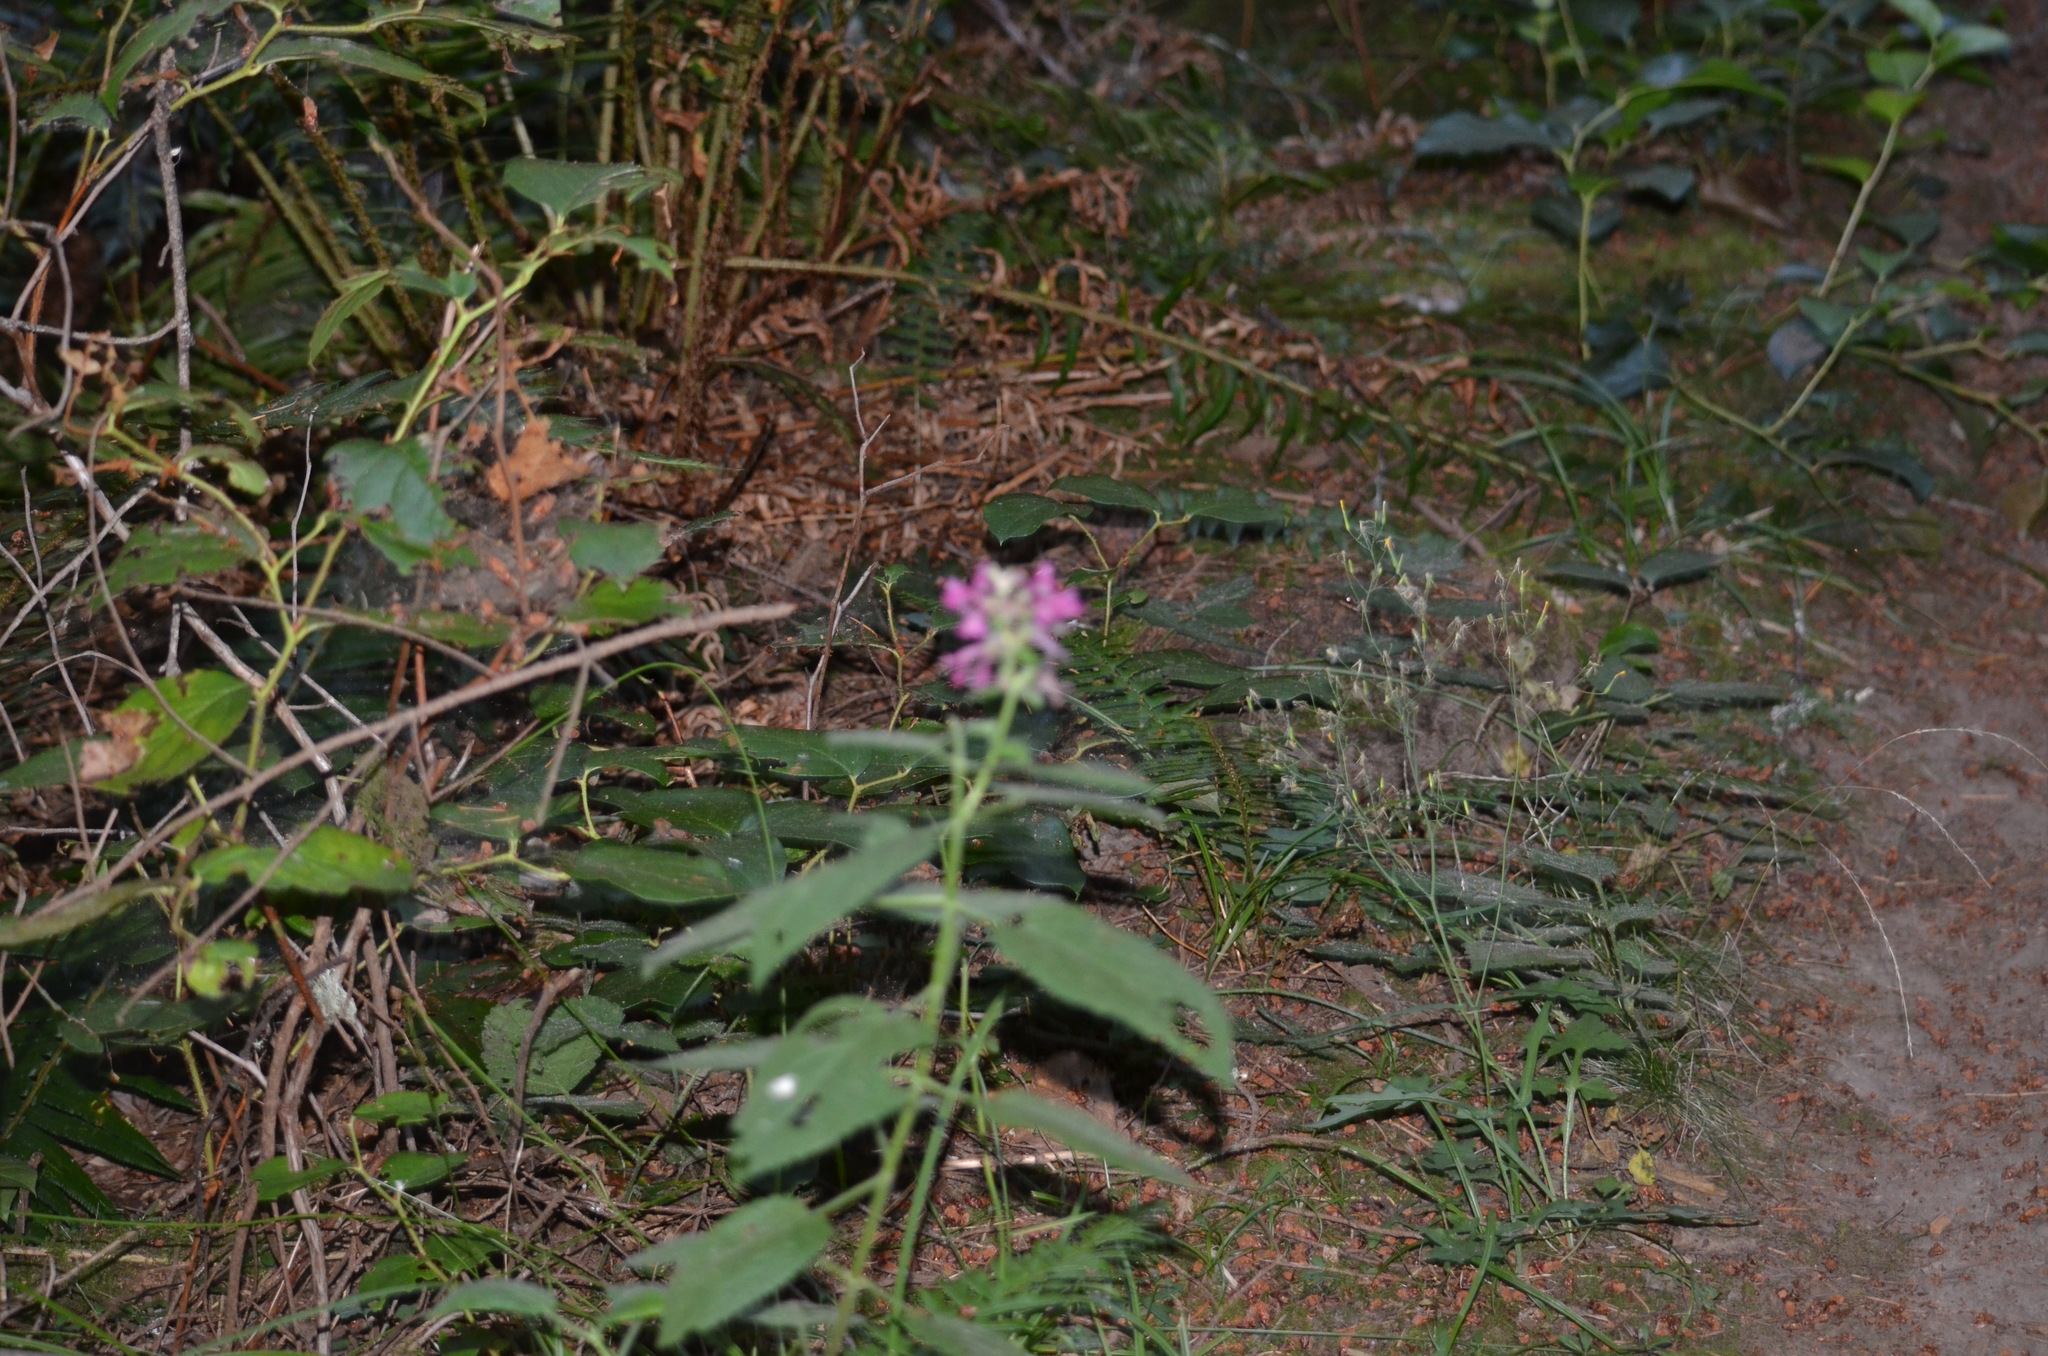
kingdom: Plantae
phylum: Tracheophyta
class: Magnoliopsida
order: Lamiales
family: Lamiaceae
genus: Stachys
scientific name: Stachys chamissonis
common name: Coastal hedge-nettle
